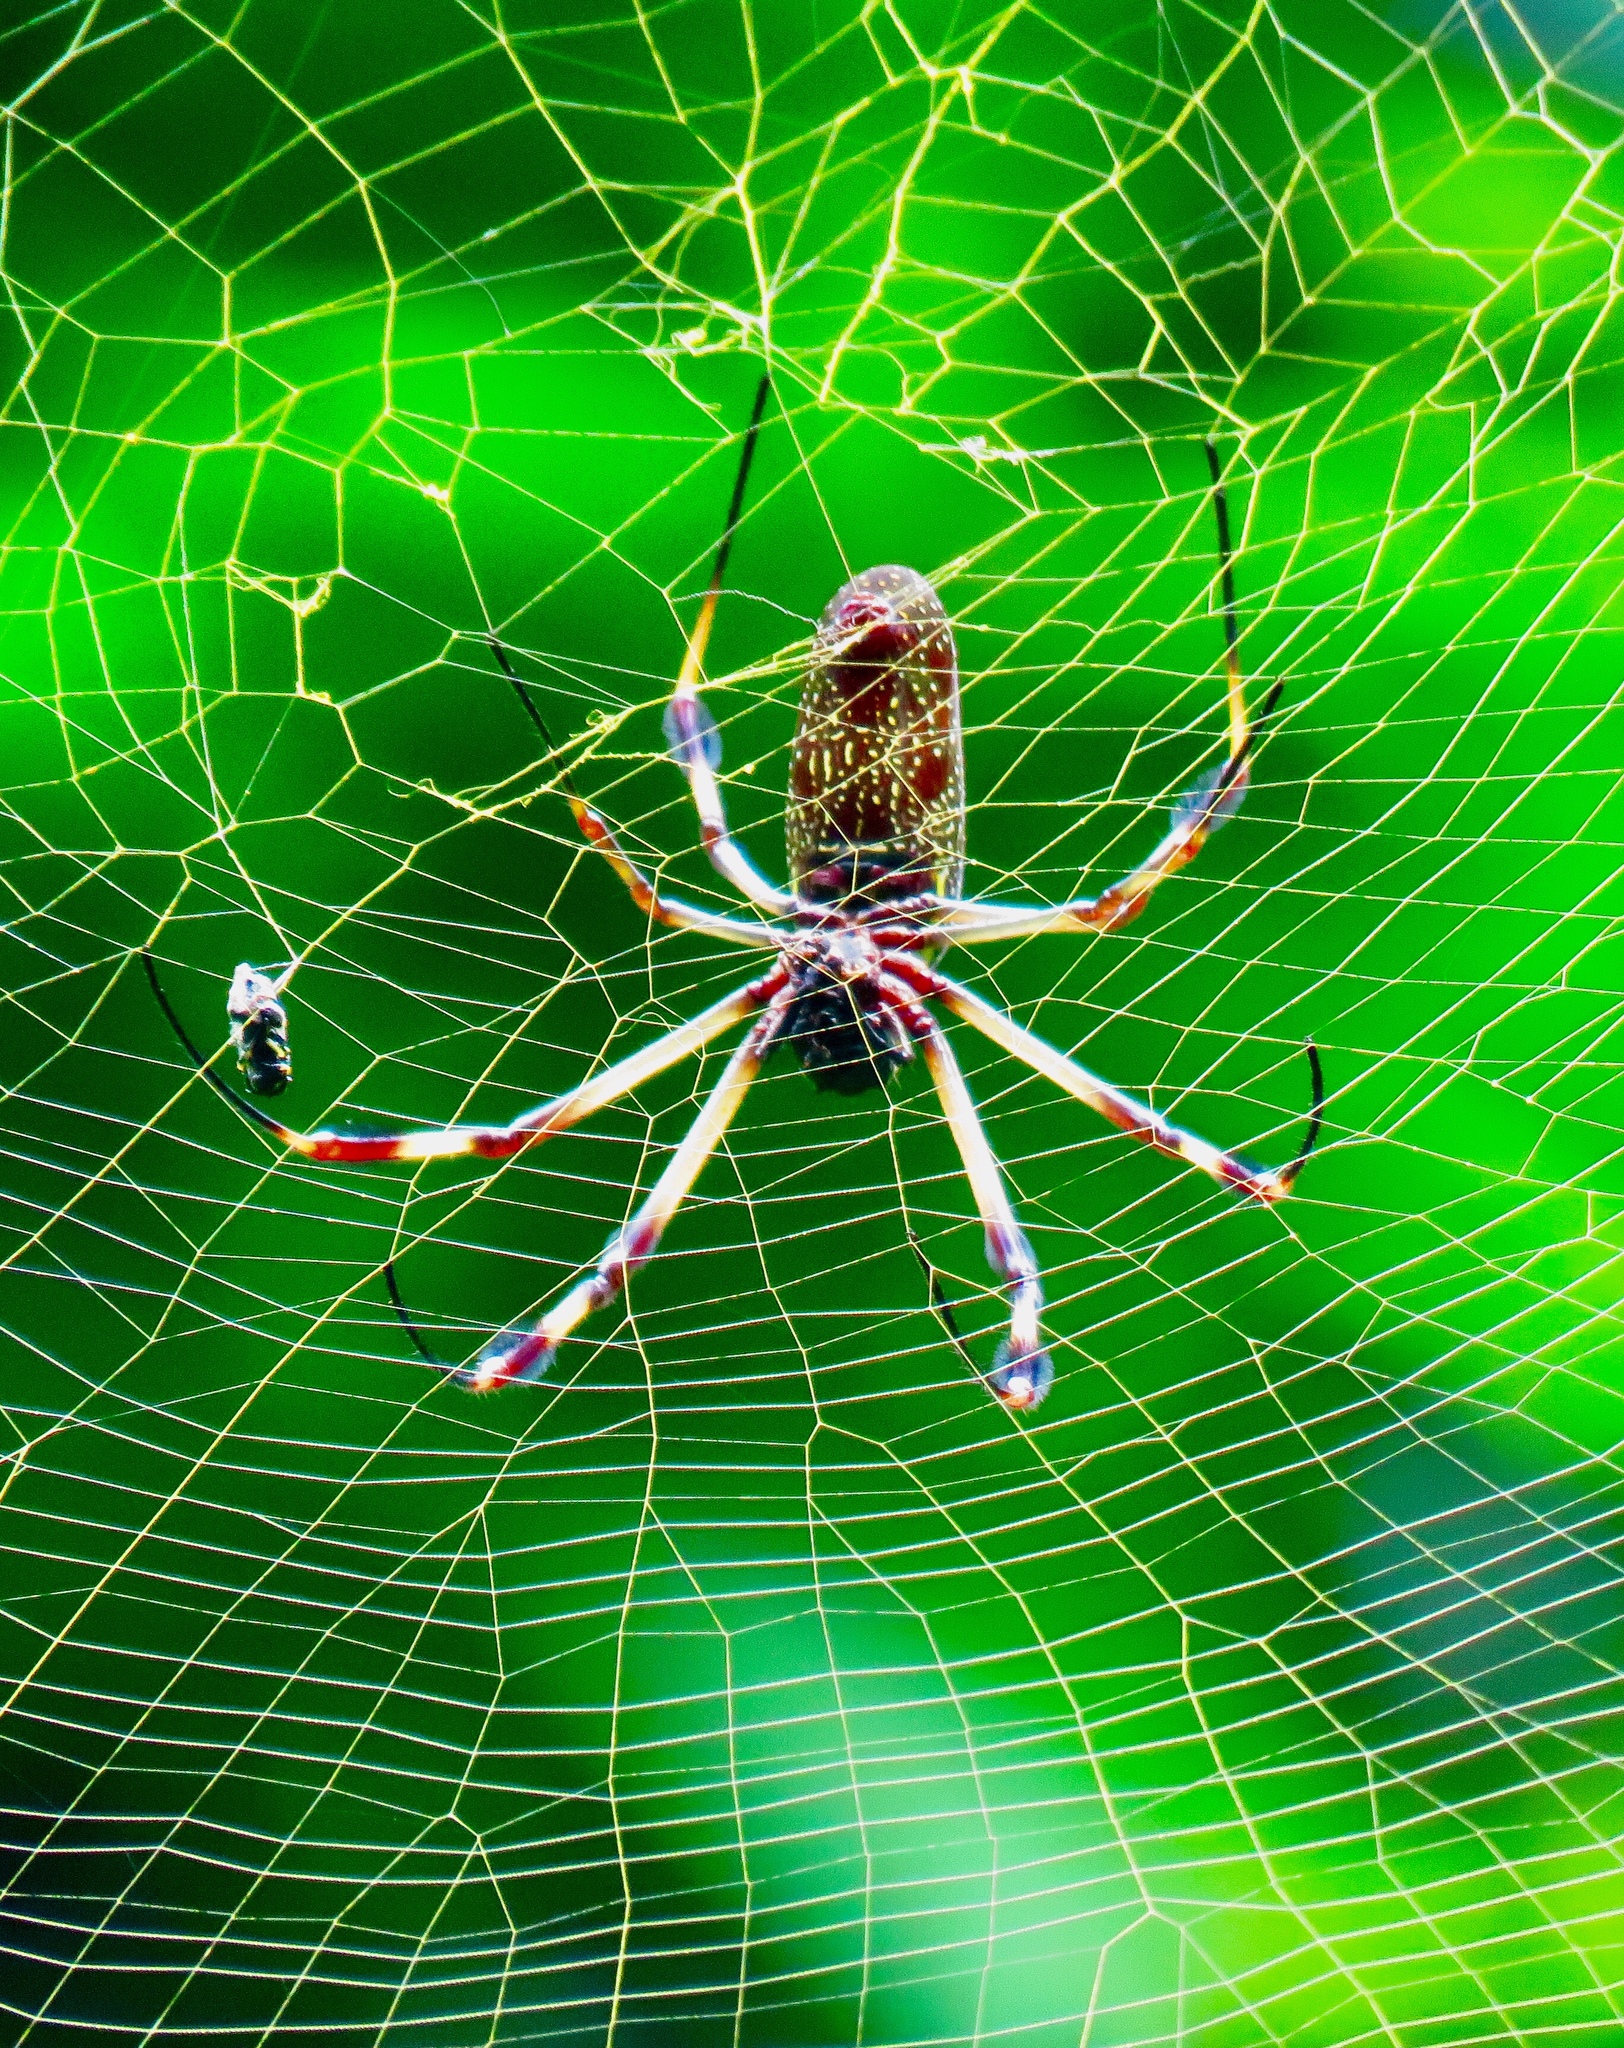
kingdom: Animalia
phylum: Arthropoda
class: Arachnida
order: Araneae
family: Araneidae
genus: Trichonephila
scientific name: Trichonephila clavipes
